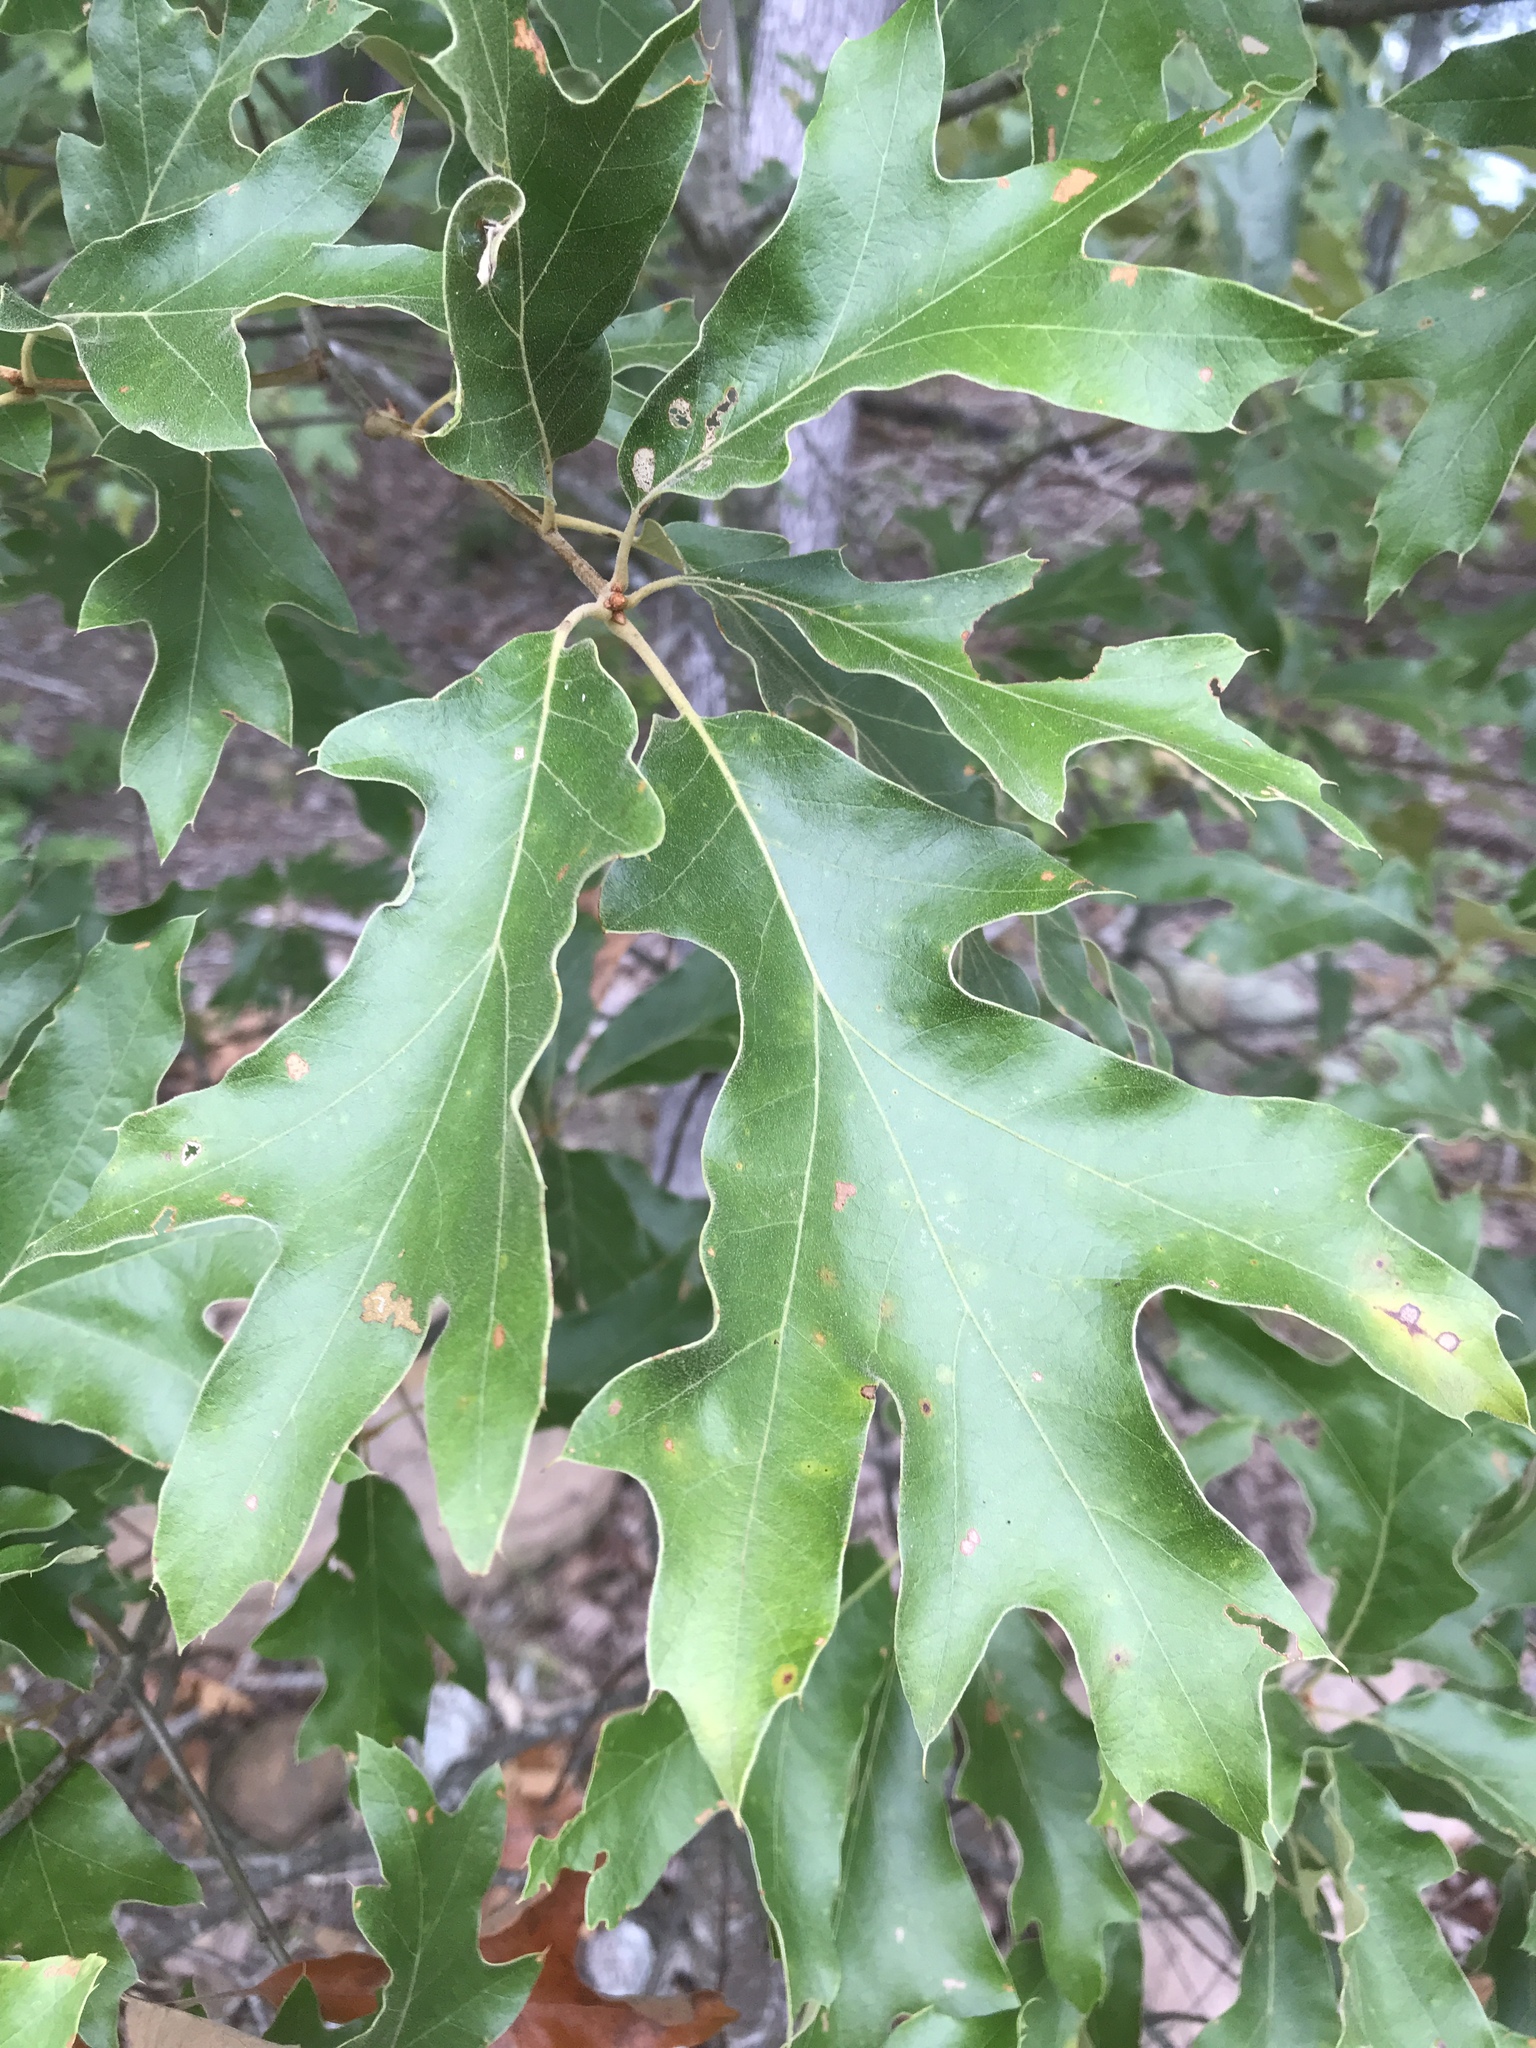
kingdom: Plantae
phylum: Tracheophyta
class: Magnoliopsida
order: Fagales
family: Fagaceae
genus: Quercus
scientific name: Quercus falcata
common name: Southern red oak
